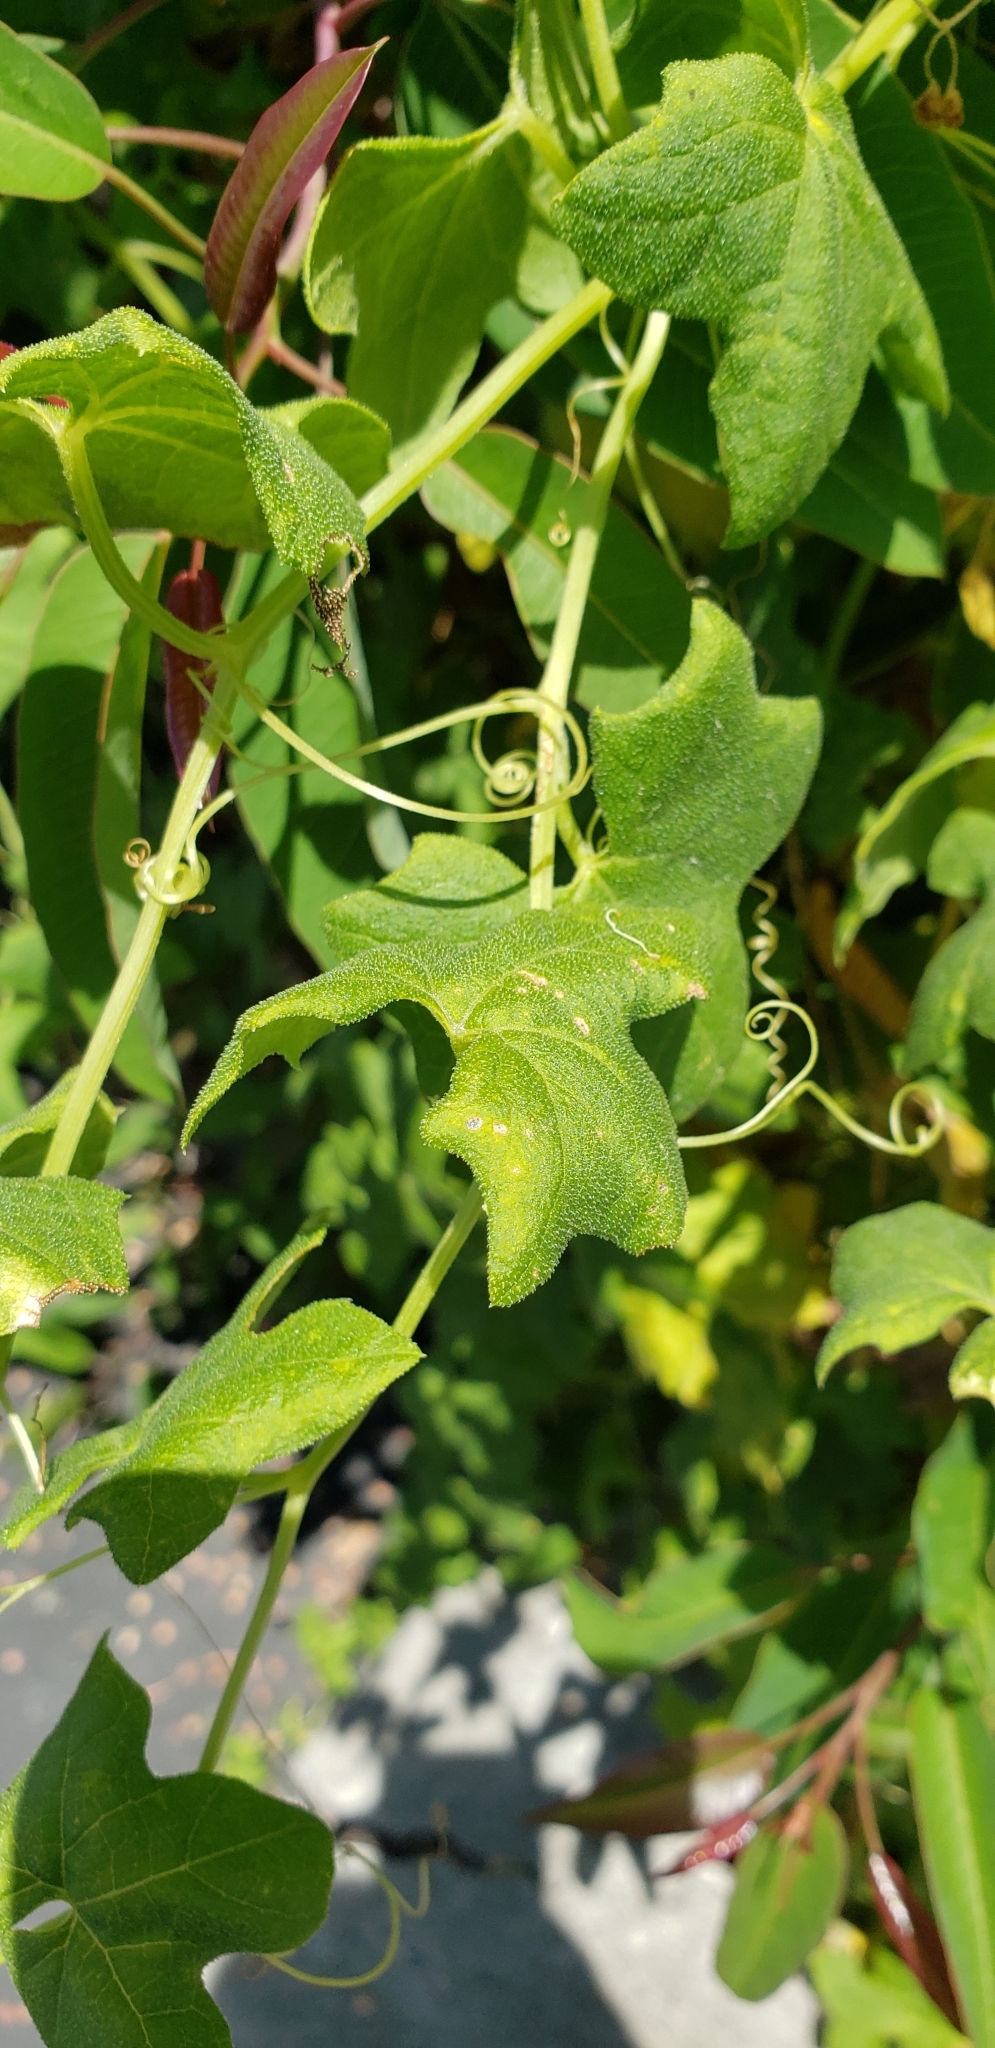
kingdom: Plantae
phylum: Tracheophyta
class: Magnoliopsida
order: Cucurbitales
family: Cucurbitaceae
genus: Marah
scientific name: Marah macrocarpa
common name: Cucamonga manroot
